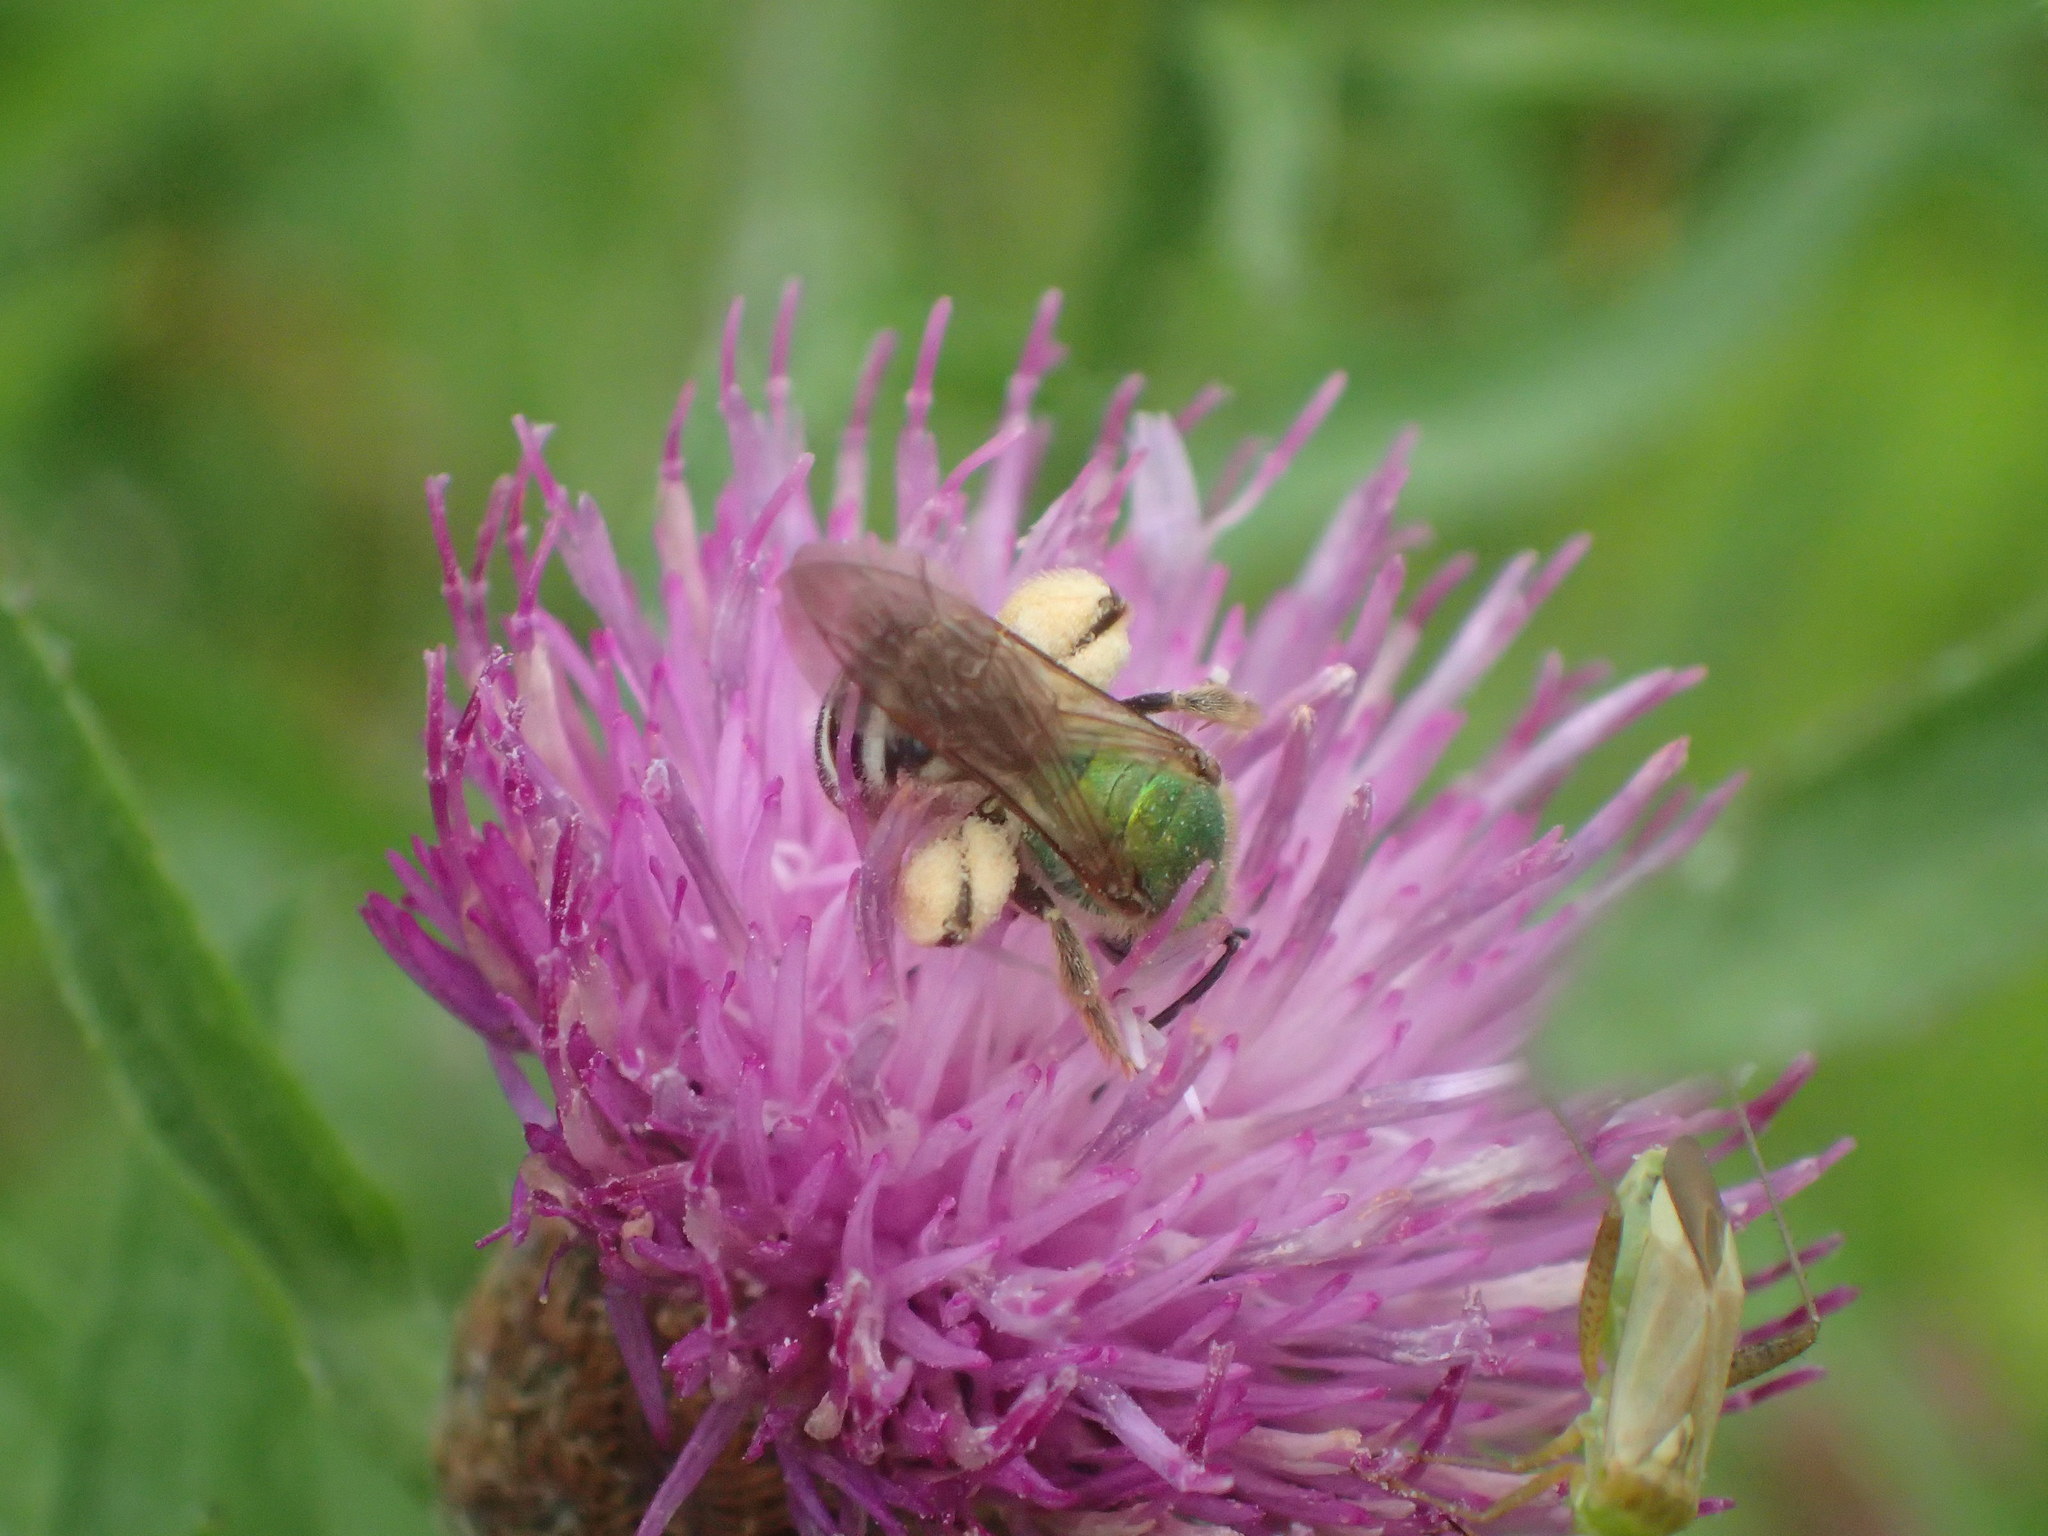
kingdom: Animalia
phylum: Arthropoda
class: Insecta
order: Hymenoptera
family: Halictidae
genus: Agapostemon
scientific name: Agapostemon virescens
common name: Bicolored striped sweat bee
